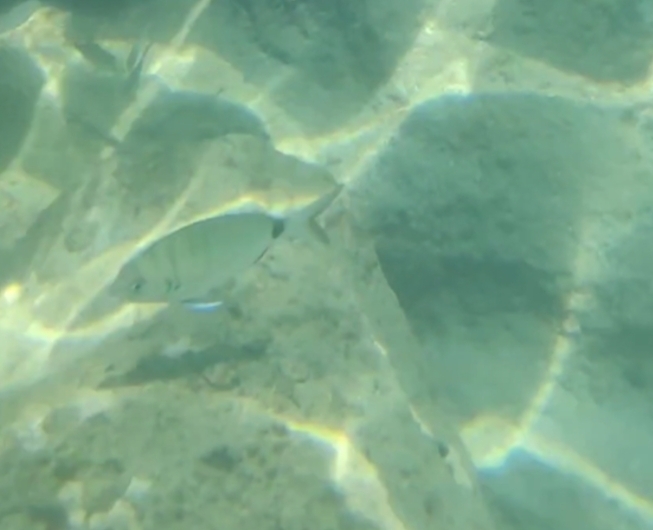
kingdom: Animalia
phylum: Chordata
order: Perciformes
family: Sparidae
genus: Diplodus
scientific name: Diplodus sargus
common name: White seabream
